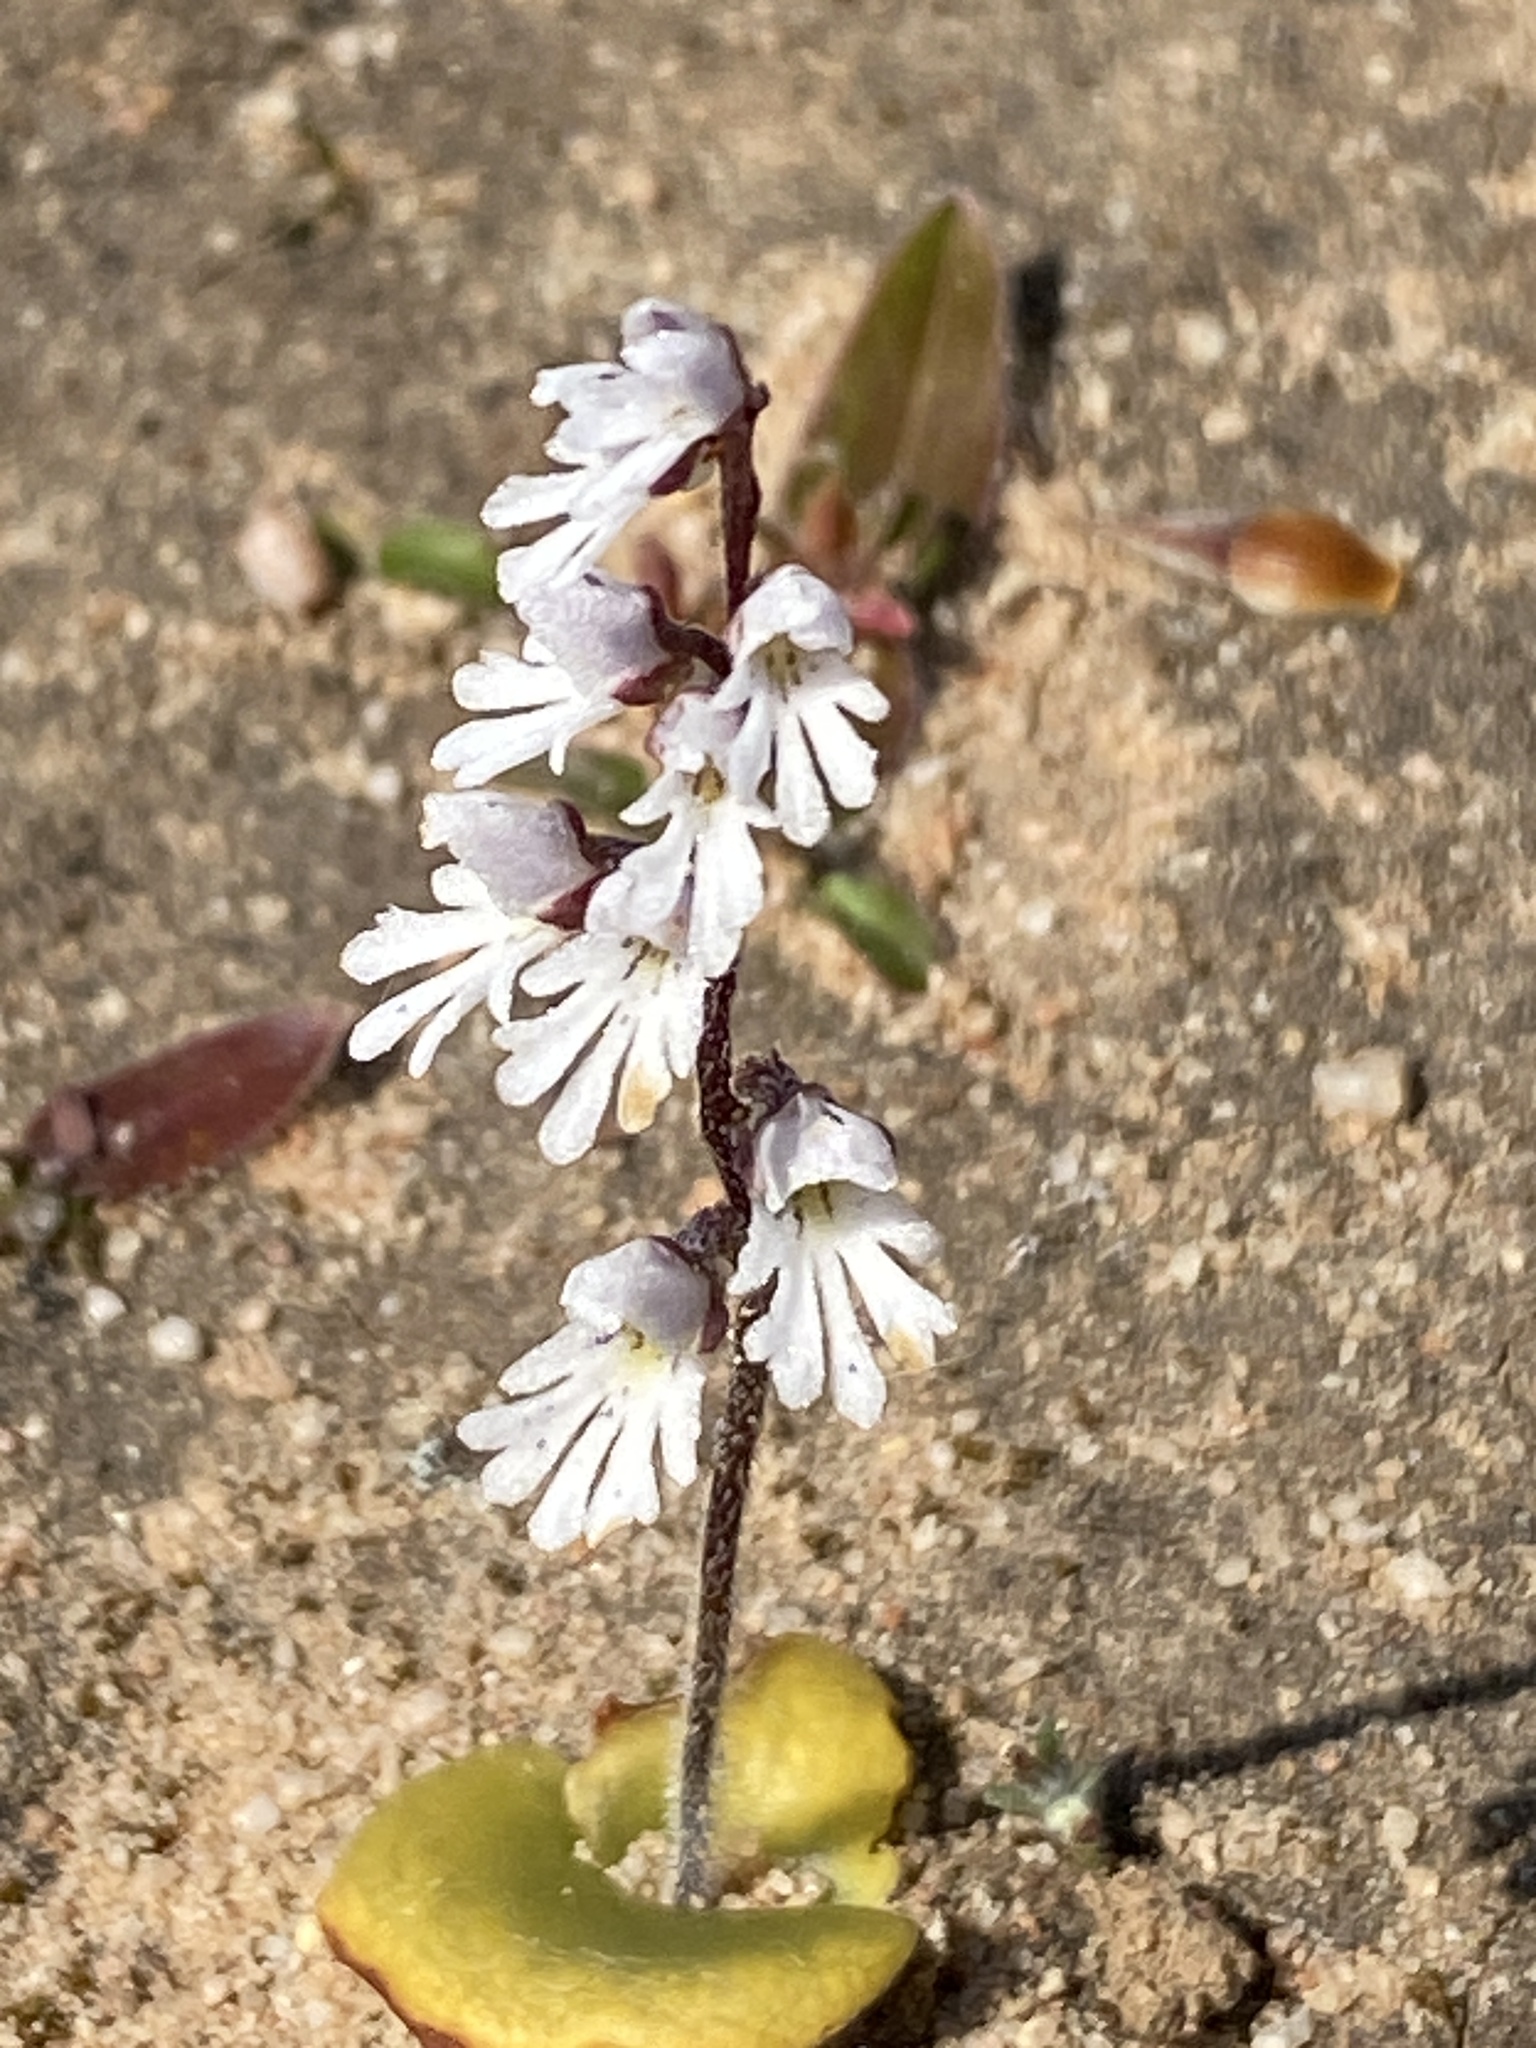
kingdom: Plantae
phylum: Tracheophyta
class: Liliopsida
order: Asparagales
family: Orchidaceae
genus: Holothrix
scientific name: Holothrix aspera
